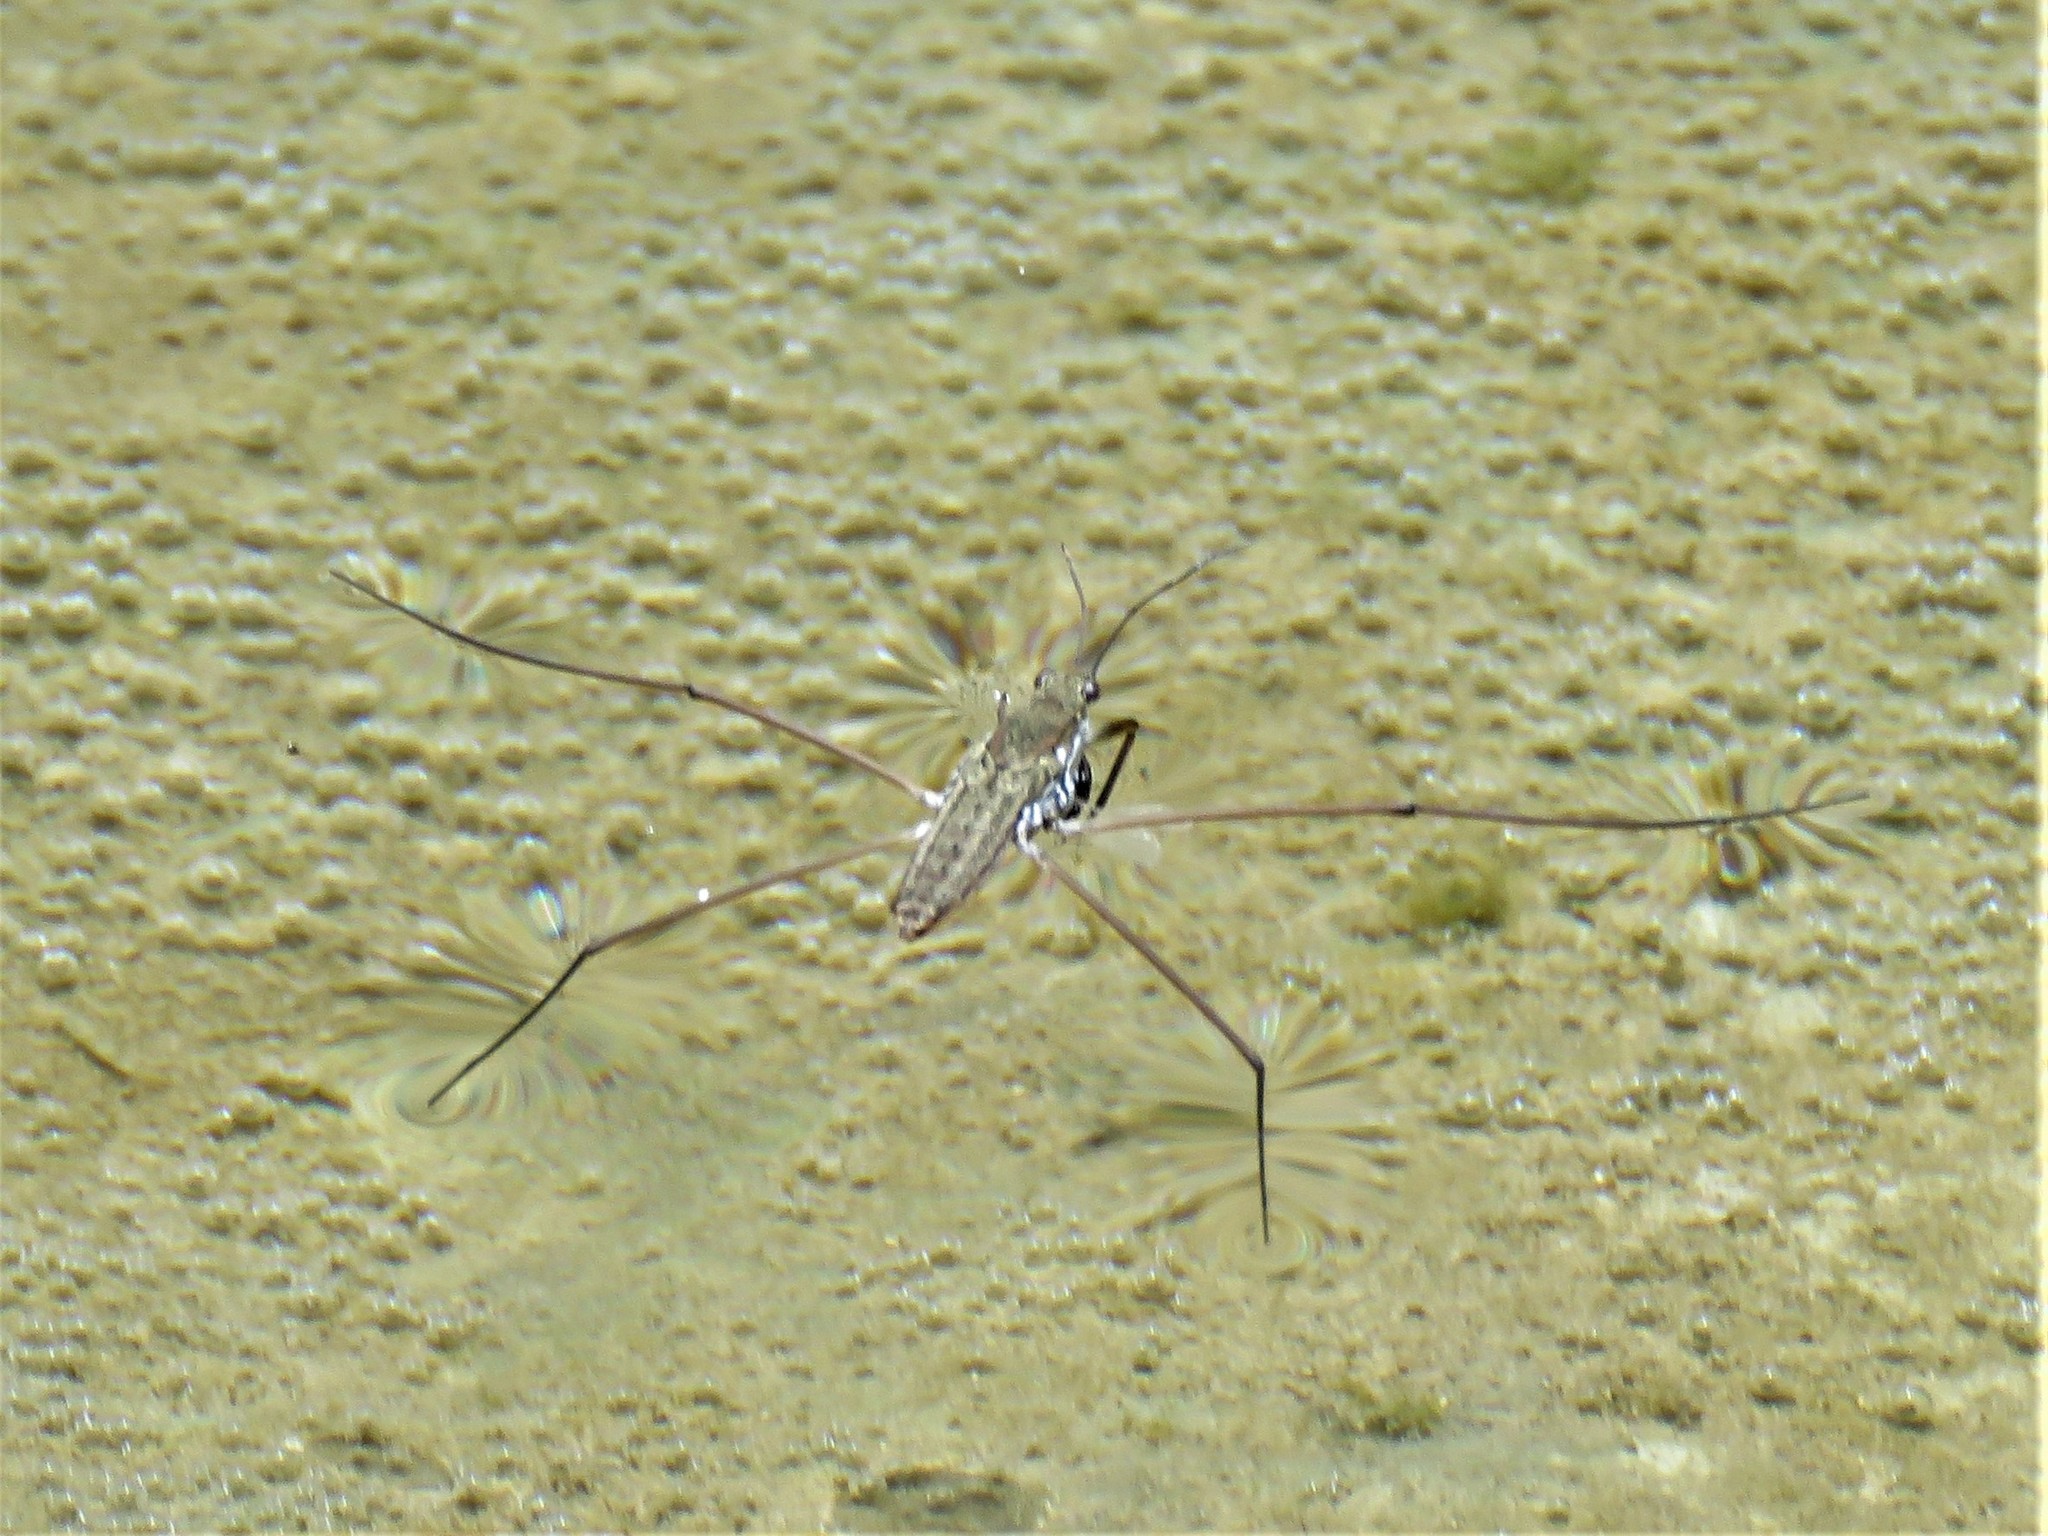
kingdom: Animalia
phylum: Arthropoda
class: Insecta
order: Hemiptera
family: Gerridae
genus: Aquarius
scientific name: Aquarius remigis
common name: Common water strider
